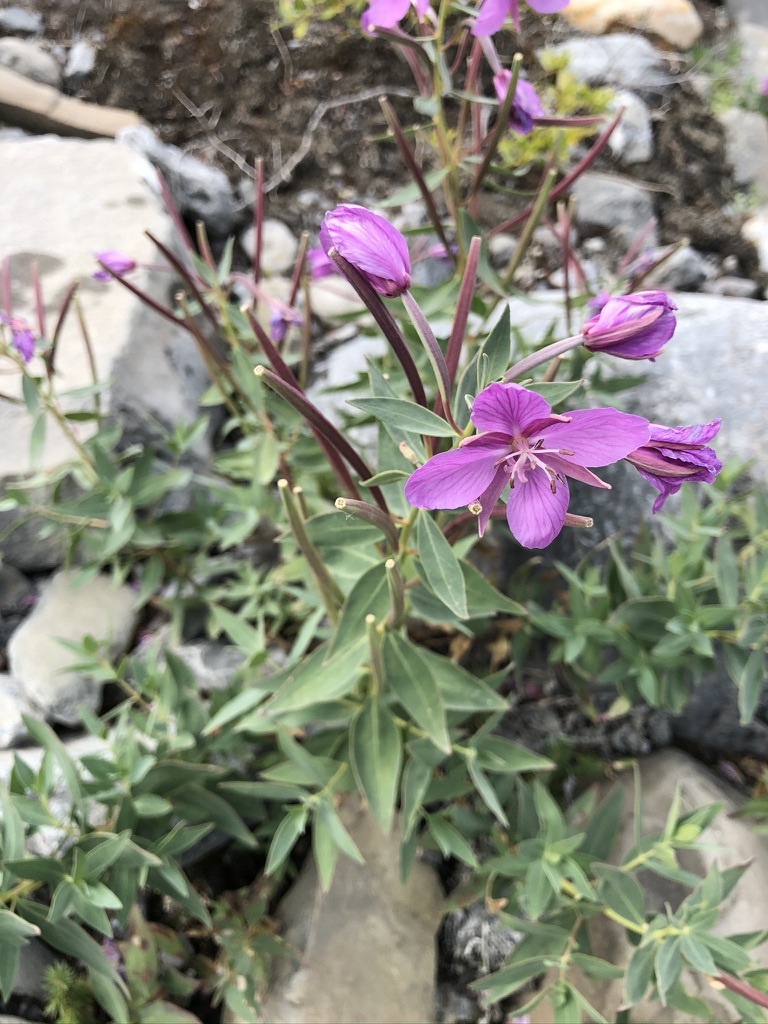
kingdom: Plantae
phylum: Tracheophyta
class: Magnoliopsida
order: Myrtales
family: Onagraceae
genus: Chamaenerion
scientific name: Chamaenerion latifolium
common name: Dwarf fireweed
